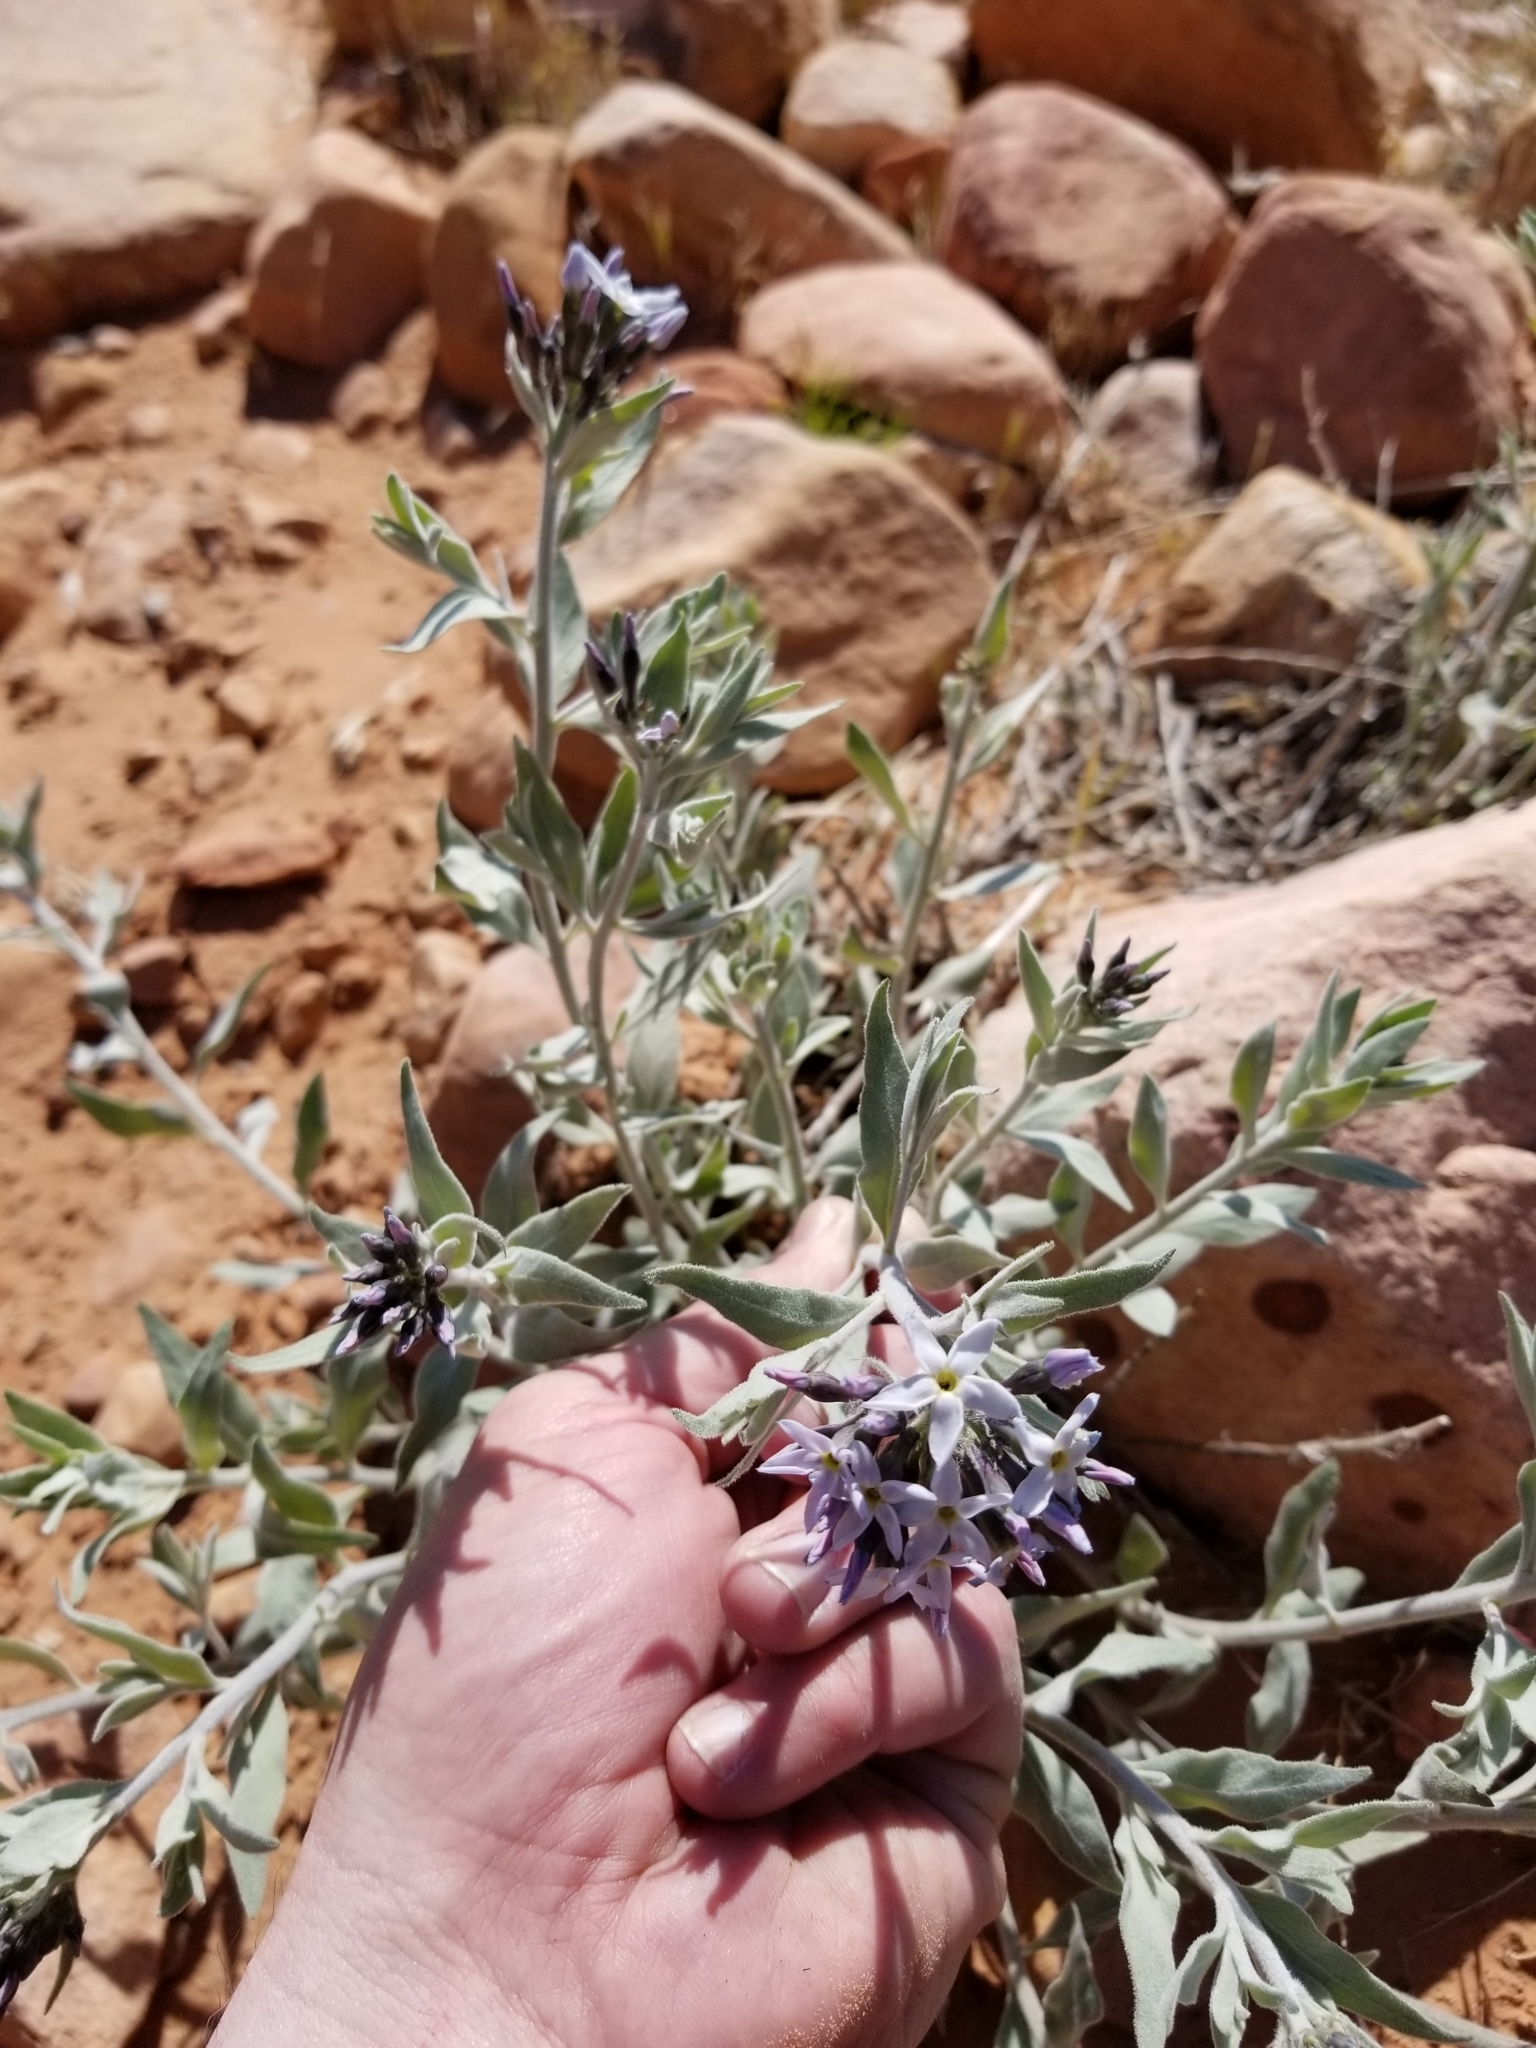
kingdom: Plantae
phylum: Tracheophyta
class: Magnoliopsida
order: Gentianales
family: Apocynaceae
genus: Amsonia
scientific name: Amsonia tomentosa
